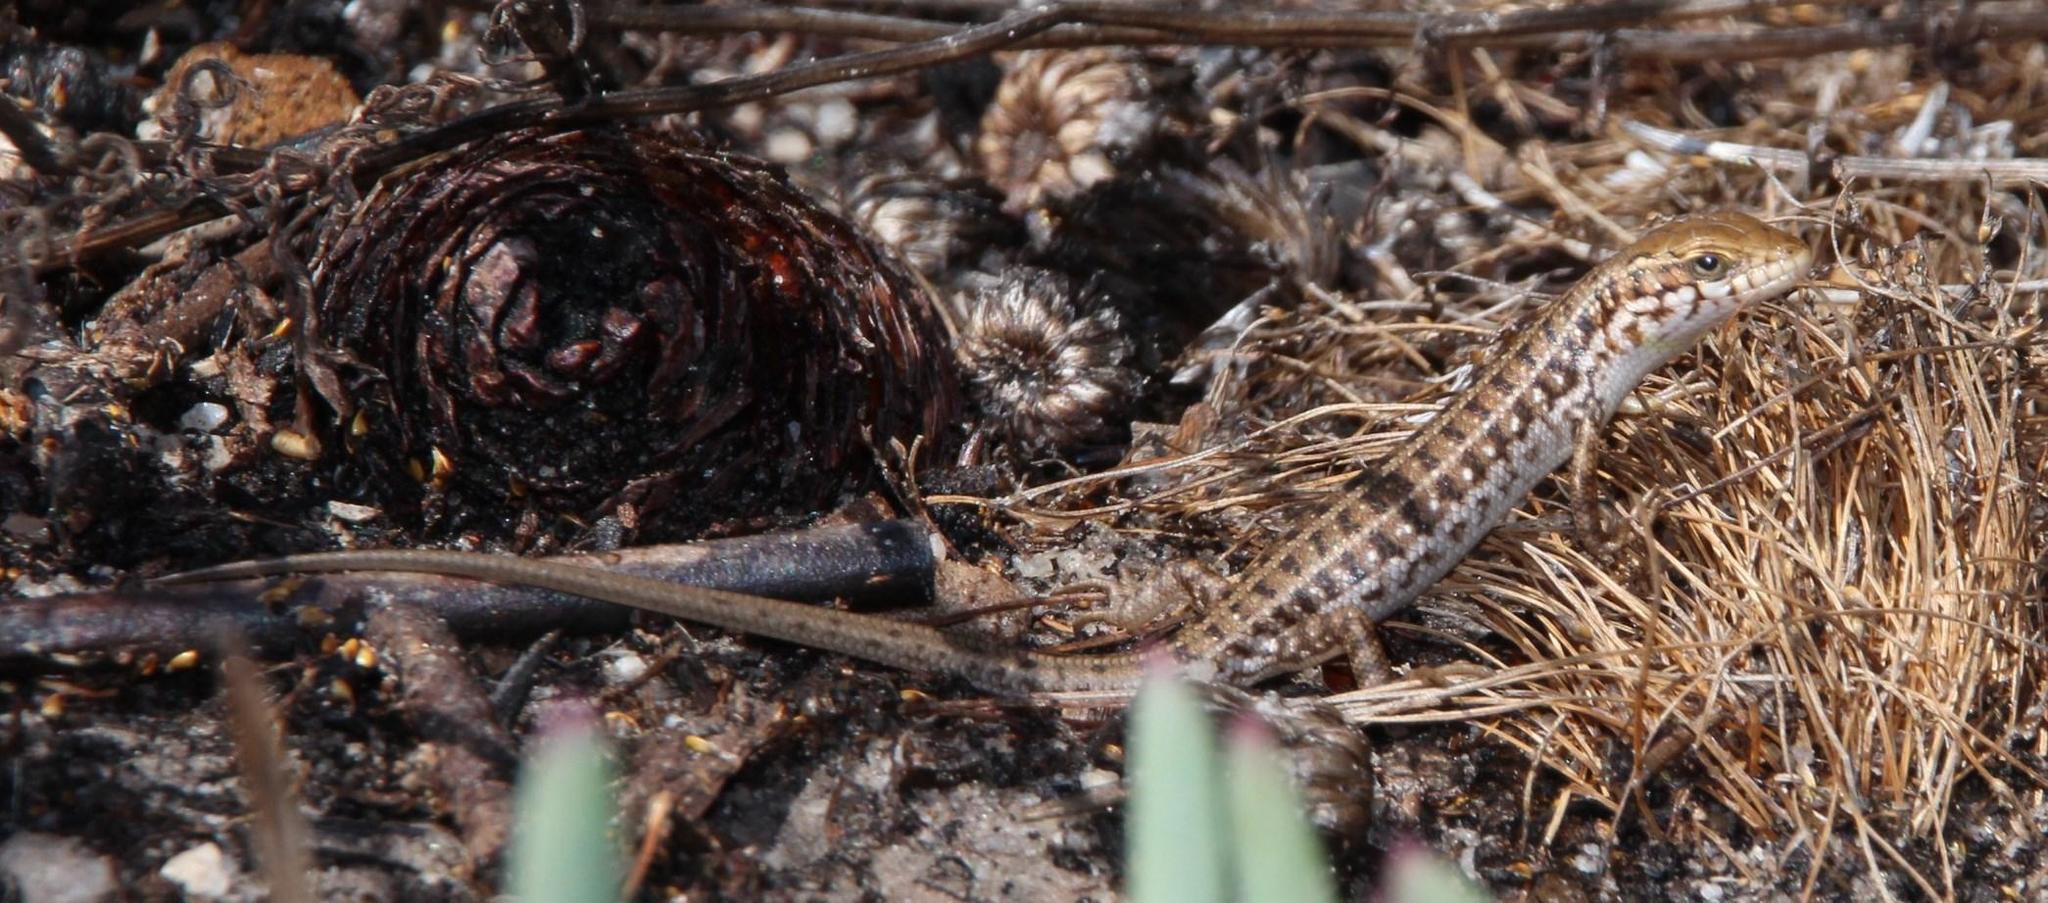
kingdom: Animalia
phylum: Chordata
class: Squamata
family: Scincidae
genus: Trachylepis
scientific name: Trachylepis capensis
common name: Cape skink
